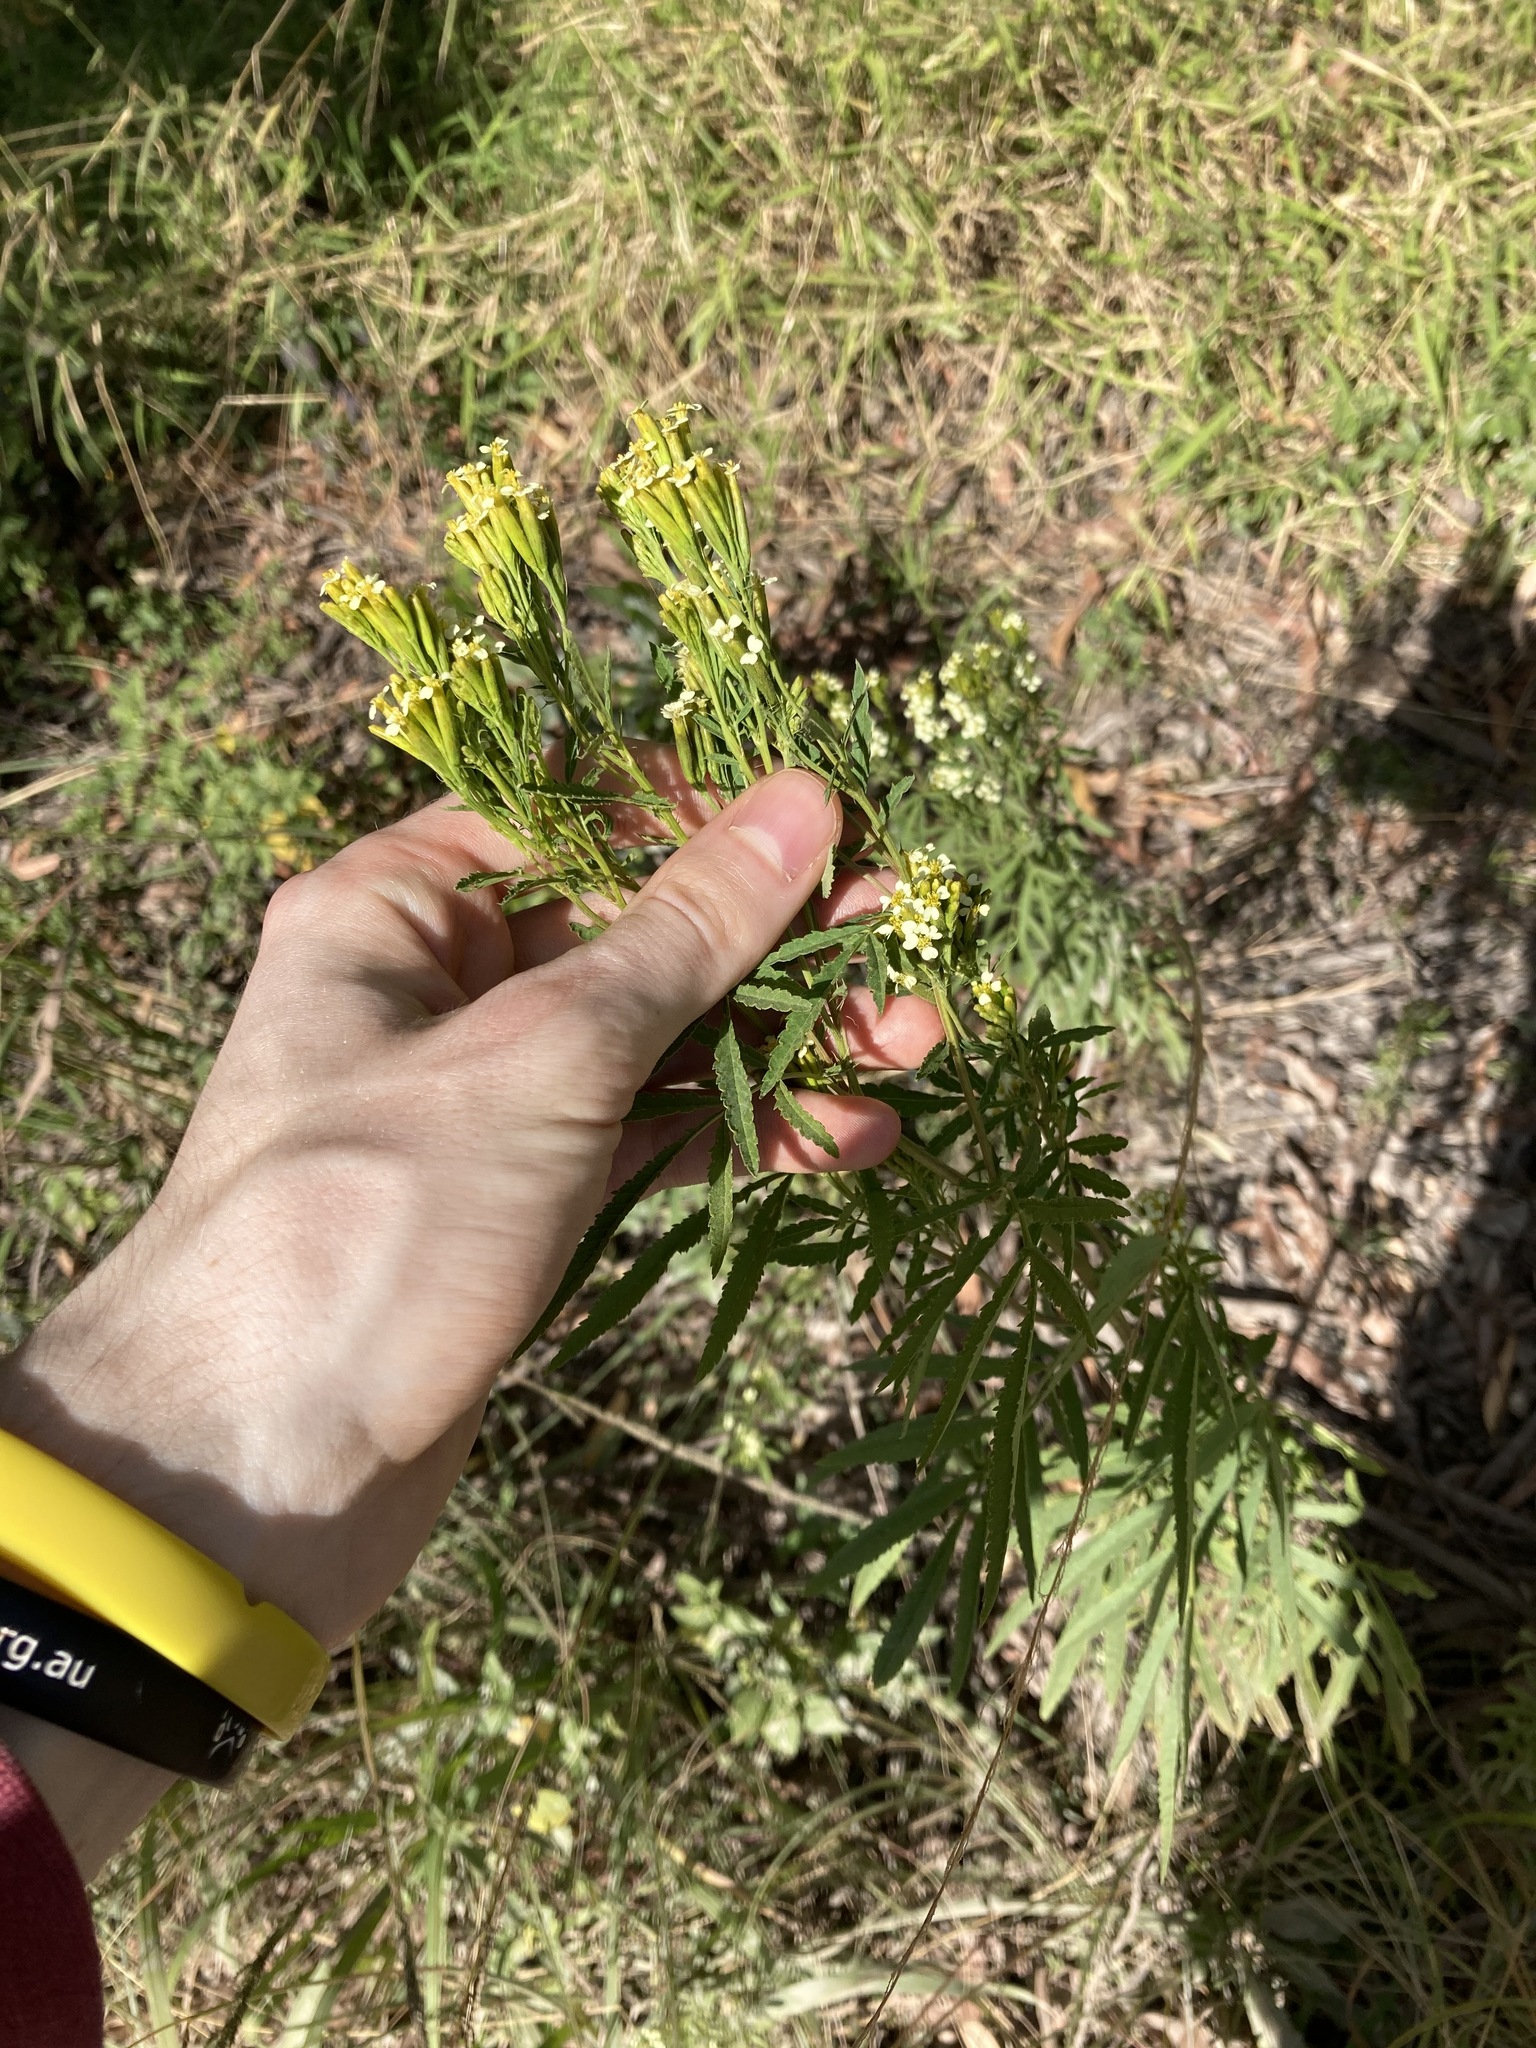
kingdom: Plantae
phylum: Tracheophyta
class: Magnoliopsida
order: Asterales
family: Asteraceae
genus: Tagetes
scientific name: Tagetes minuta
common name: Muster john henry
